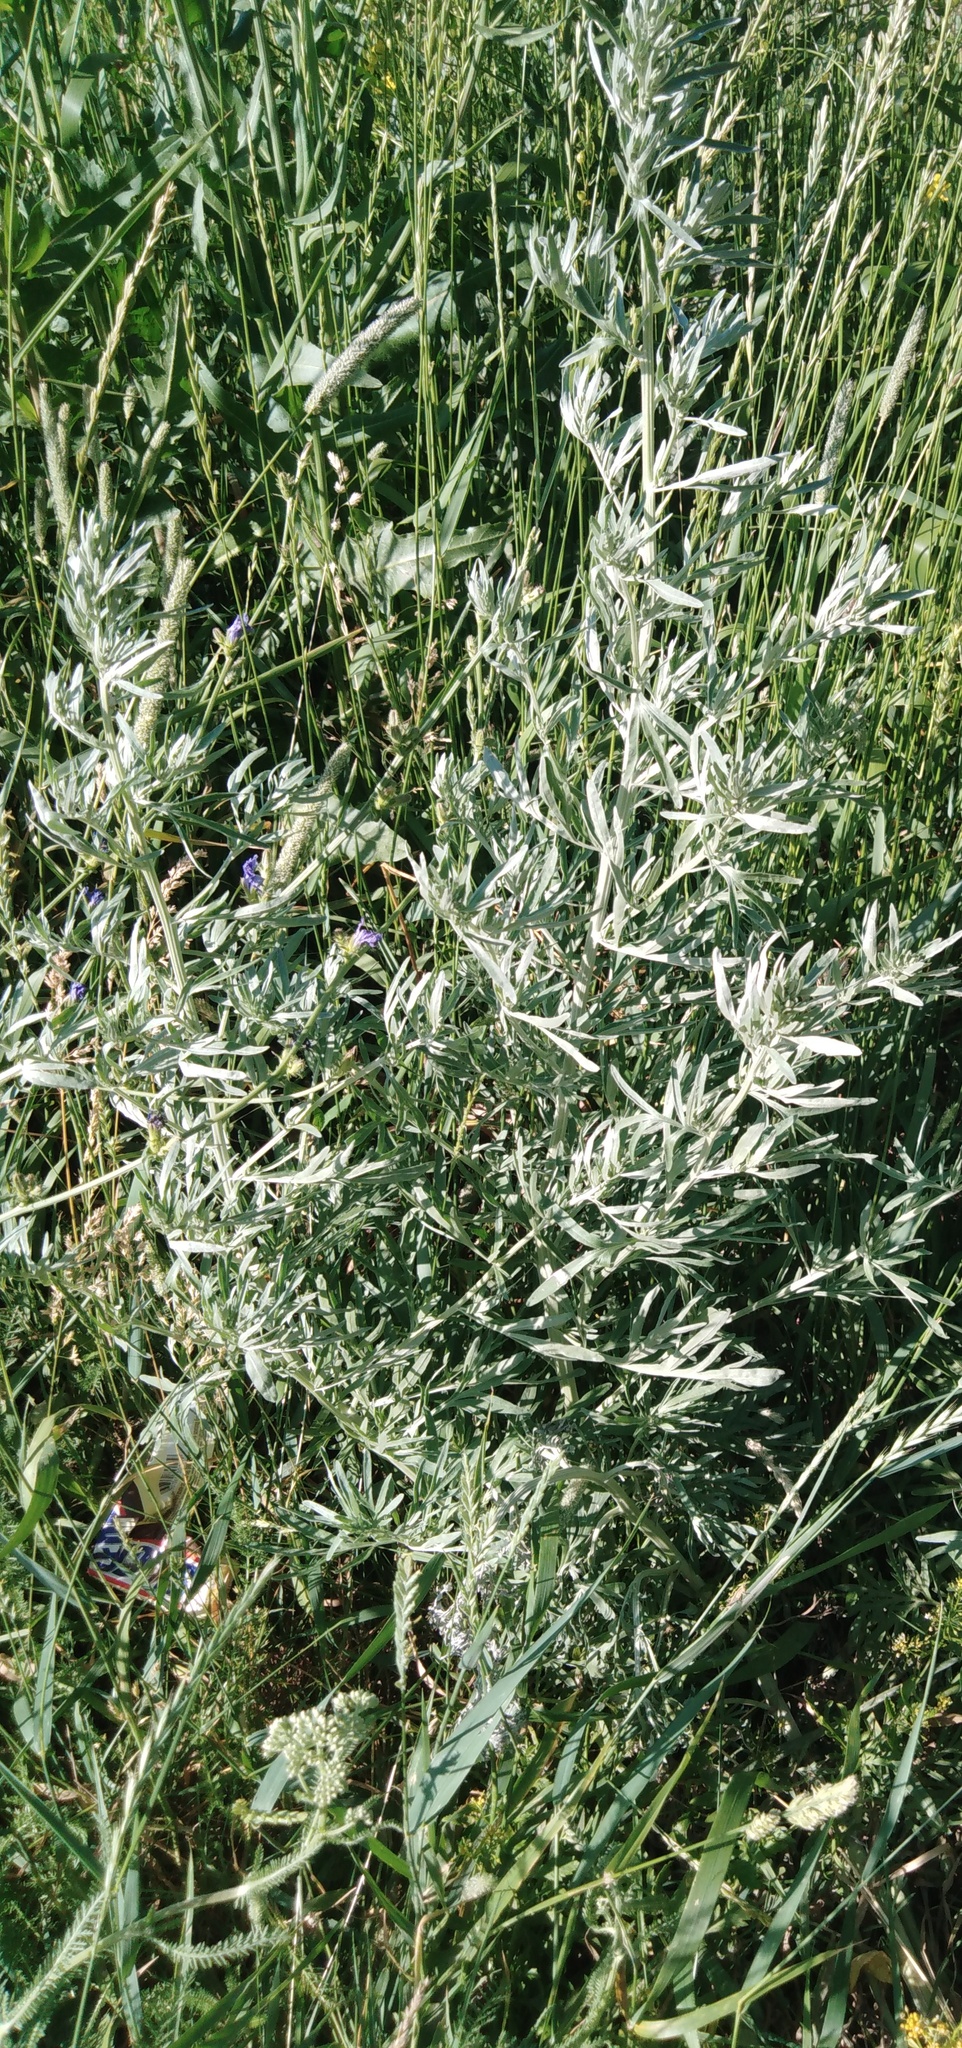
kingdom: Plantae
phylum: Tracheophyta
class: Magnoliopsida
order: Asterales
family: Asteraceae
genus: Artemisia
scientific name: Artemisia absinthium
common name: Wormwood
